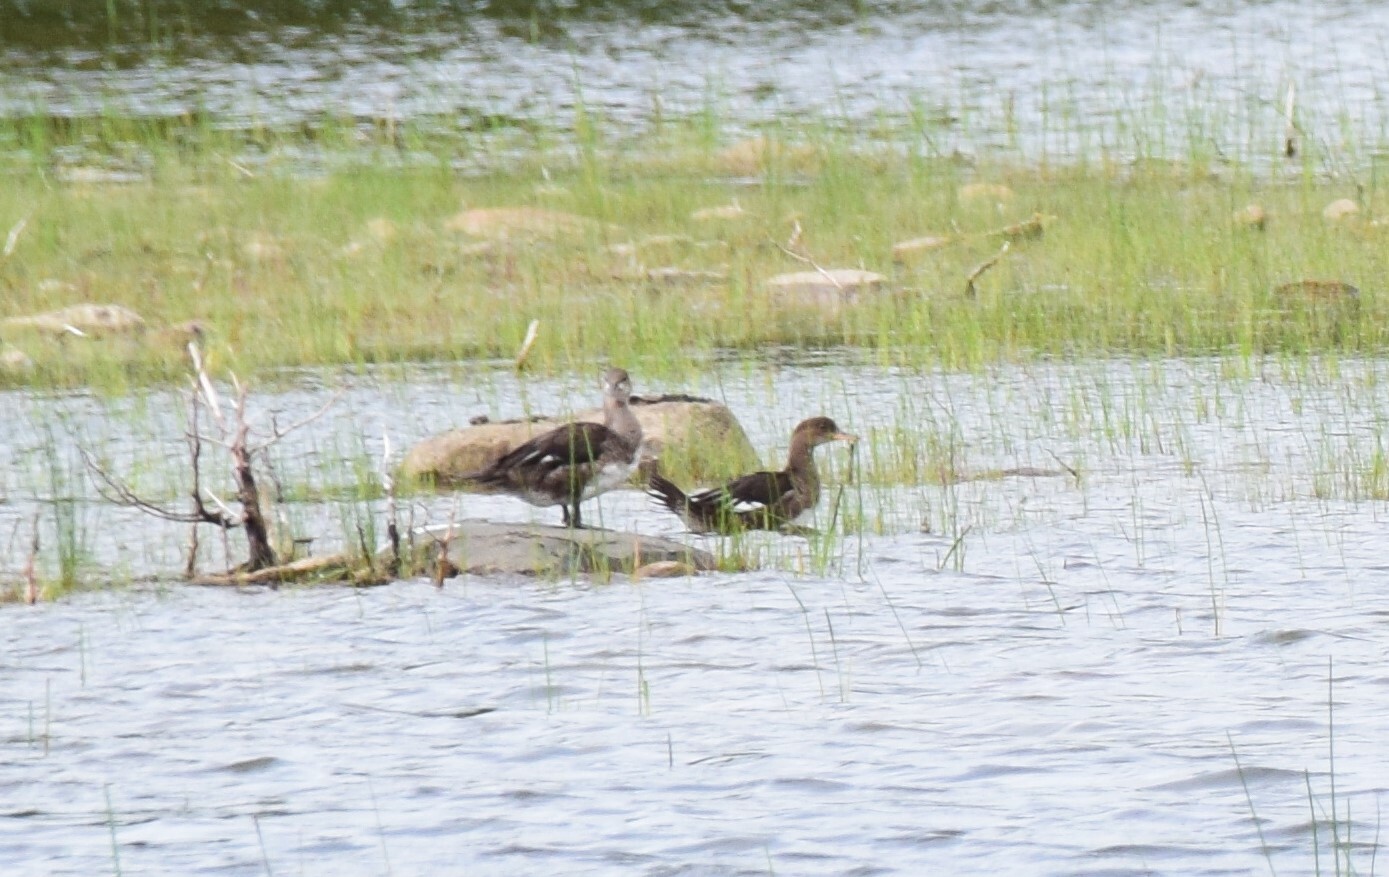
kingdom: Animalia
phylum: Chordata
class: Aves
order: Anseriformes
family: Anatidae
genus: Lophodytes
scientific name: Lophodytes cucullatus
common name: Hooded merganser
